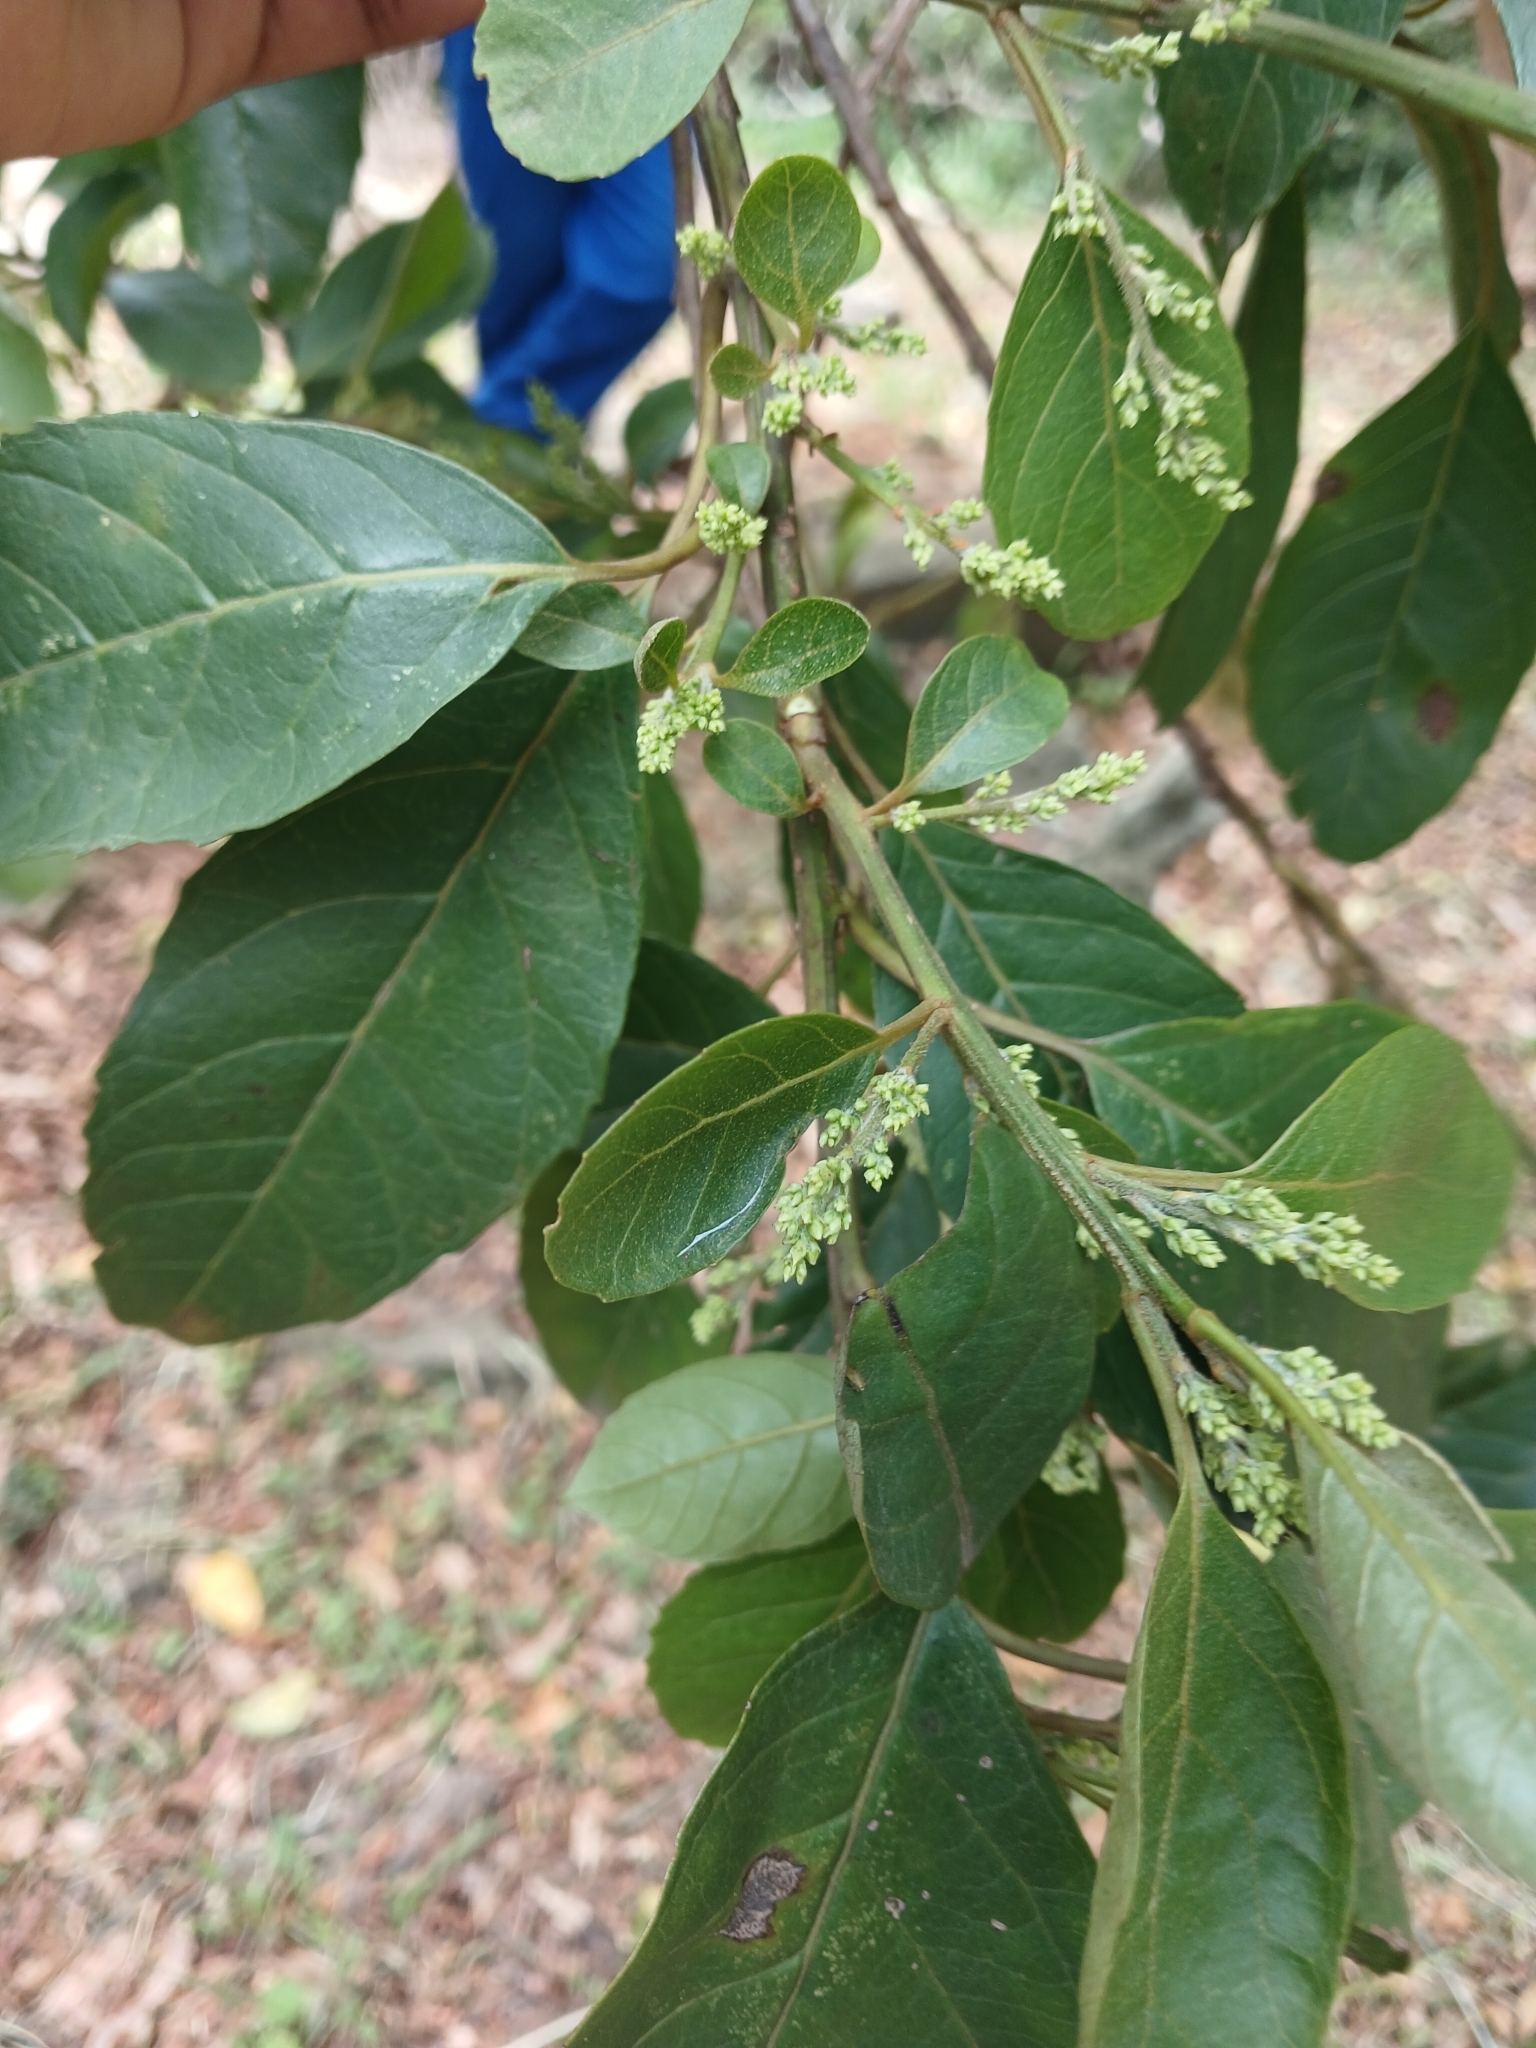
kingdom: Plantae
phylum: Tracheophyta
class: Magnoliopsida
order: Ericales
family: Primulaceae
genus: Maesa
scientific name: Maesa lanceolata
